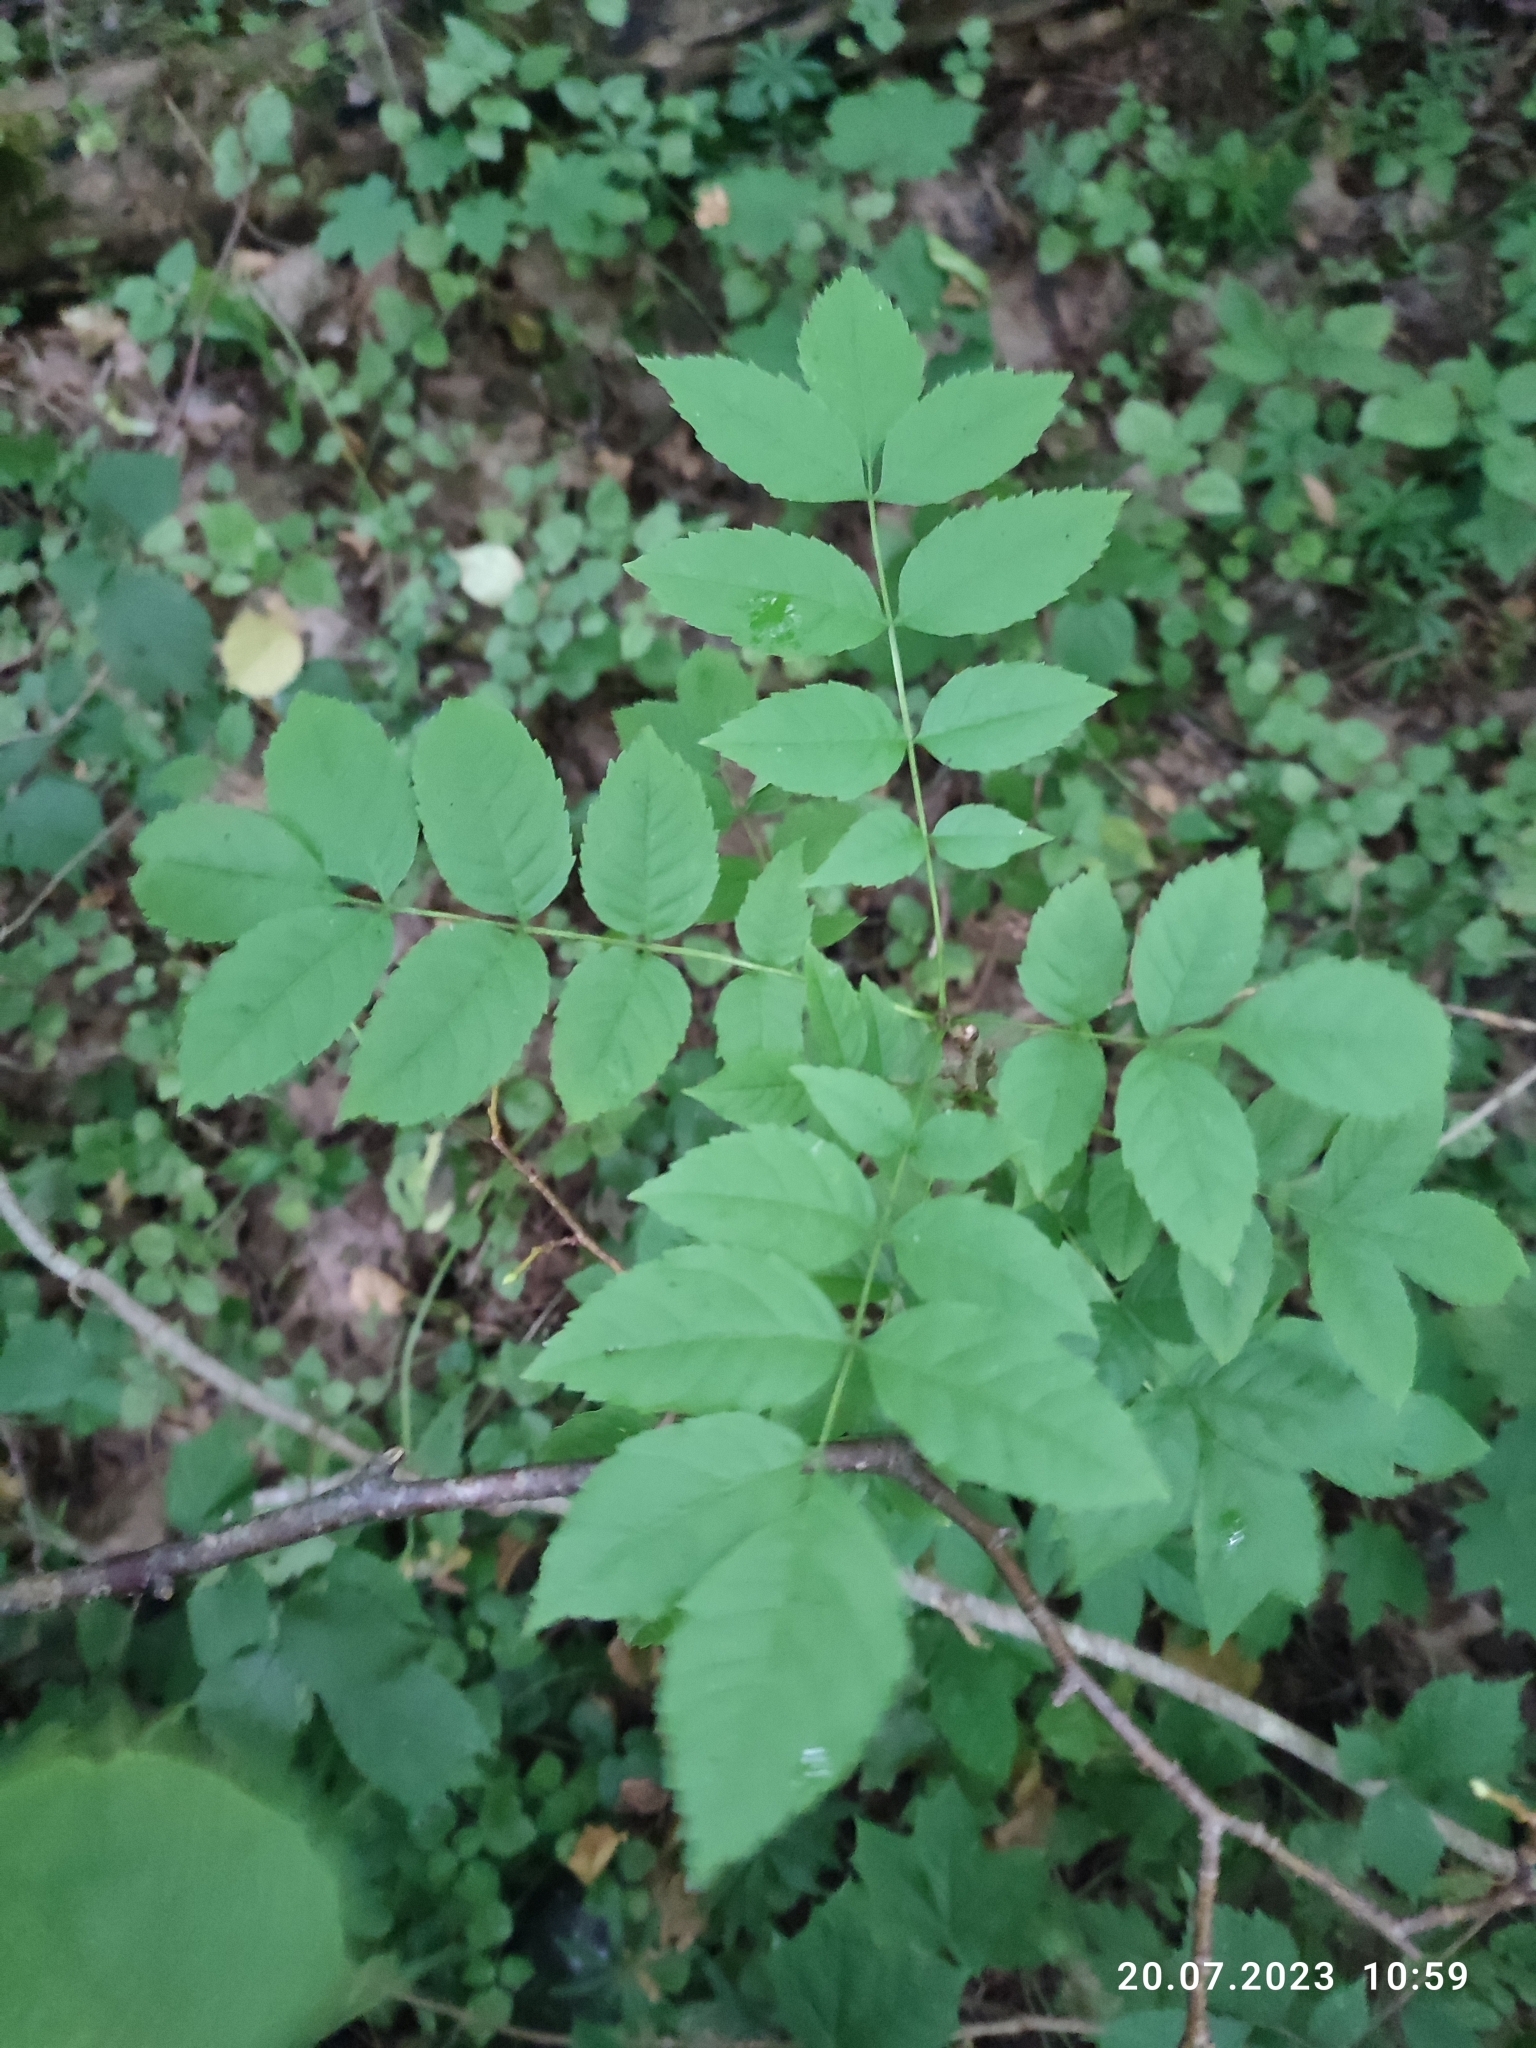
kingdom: Plantae
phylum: Tracheophyta
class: Magnoliopsida
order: Lamiales
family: Oleaceae
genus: Fraxinus
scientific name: Fraxinus excelsior
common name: European ash
